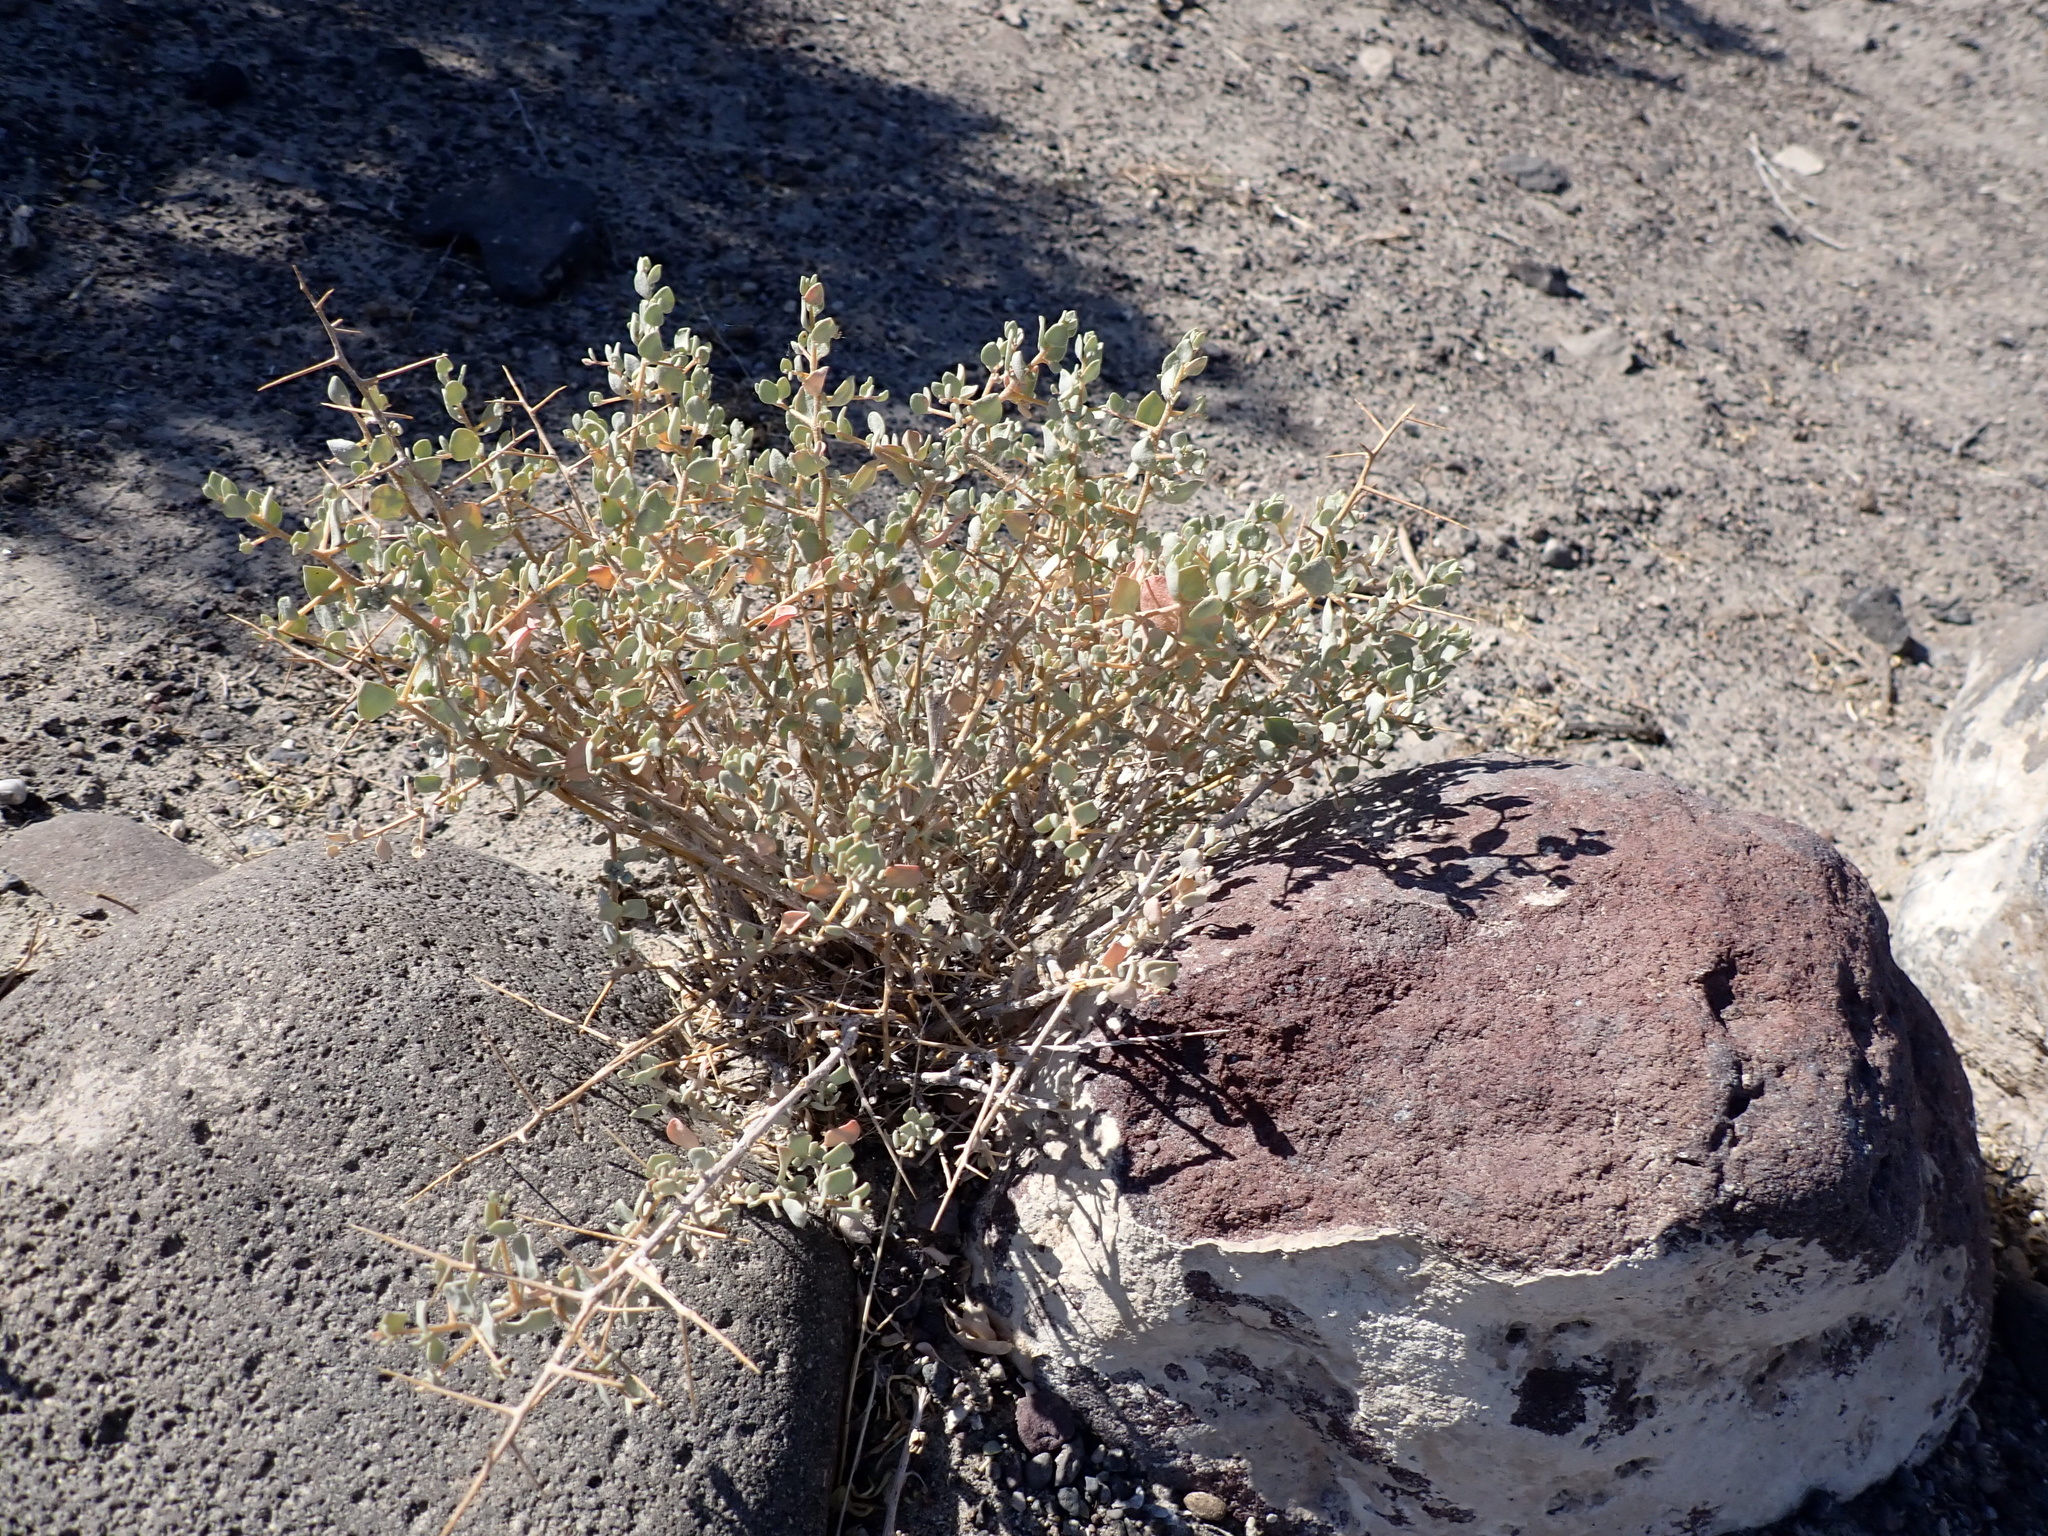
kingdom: Plantae
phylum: Tracheophyta
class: Magnoliopsida
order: Caryophyllales
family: Amaranthaceae
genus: Atriplex
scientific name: Atriplex confertifolia
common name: Shadscale
